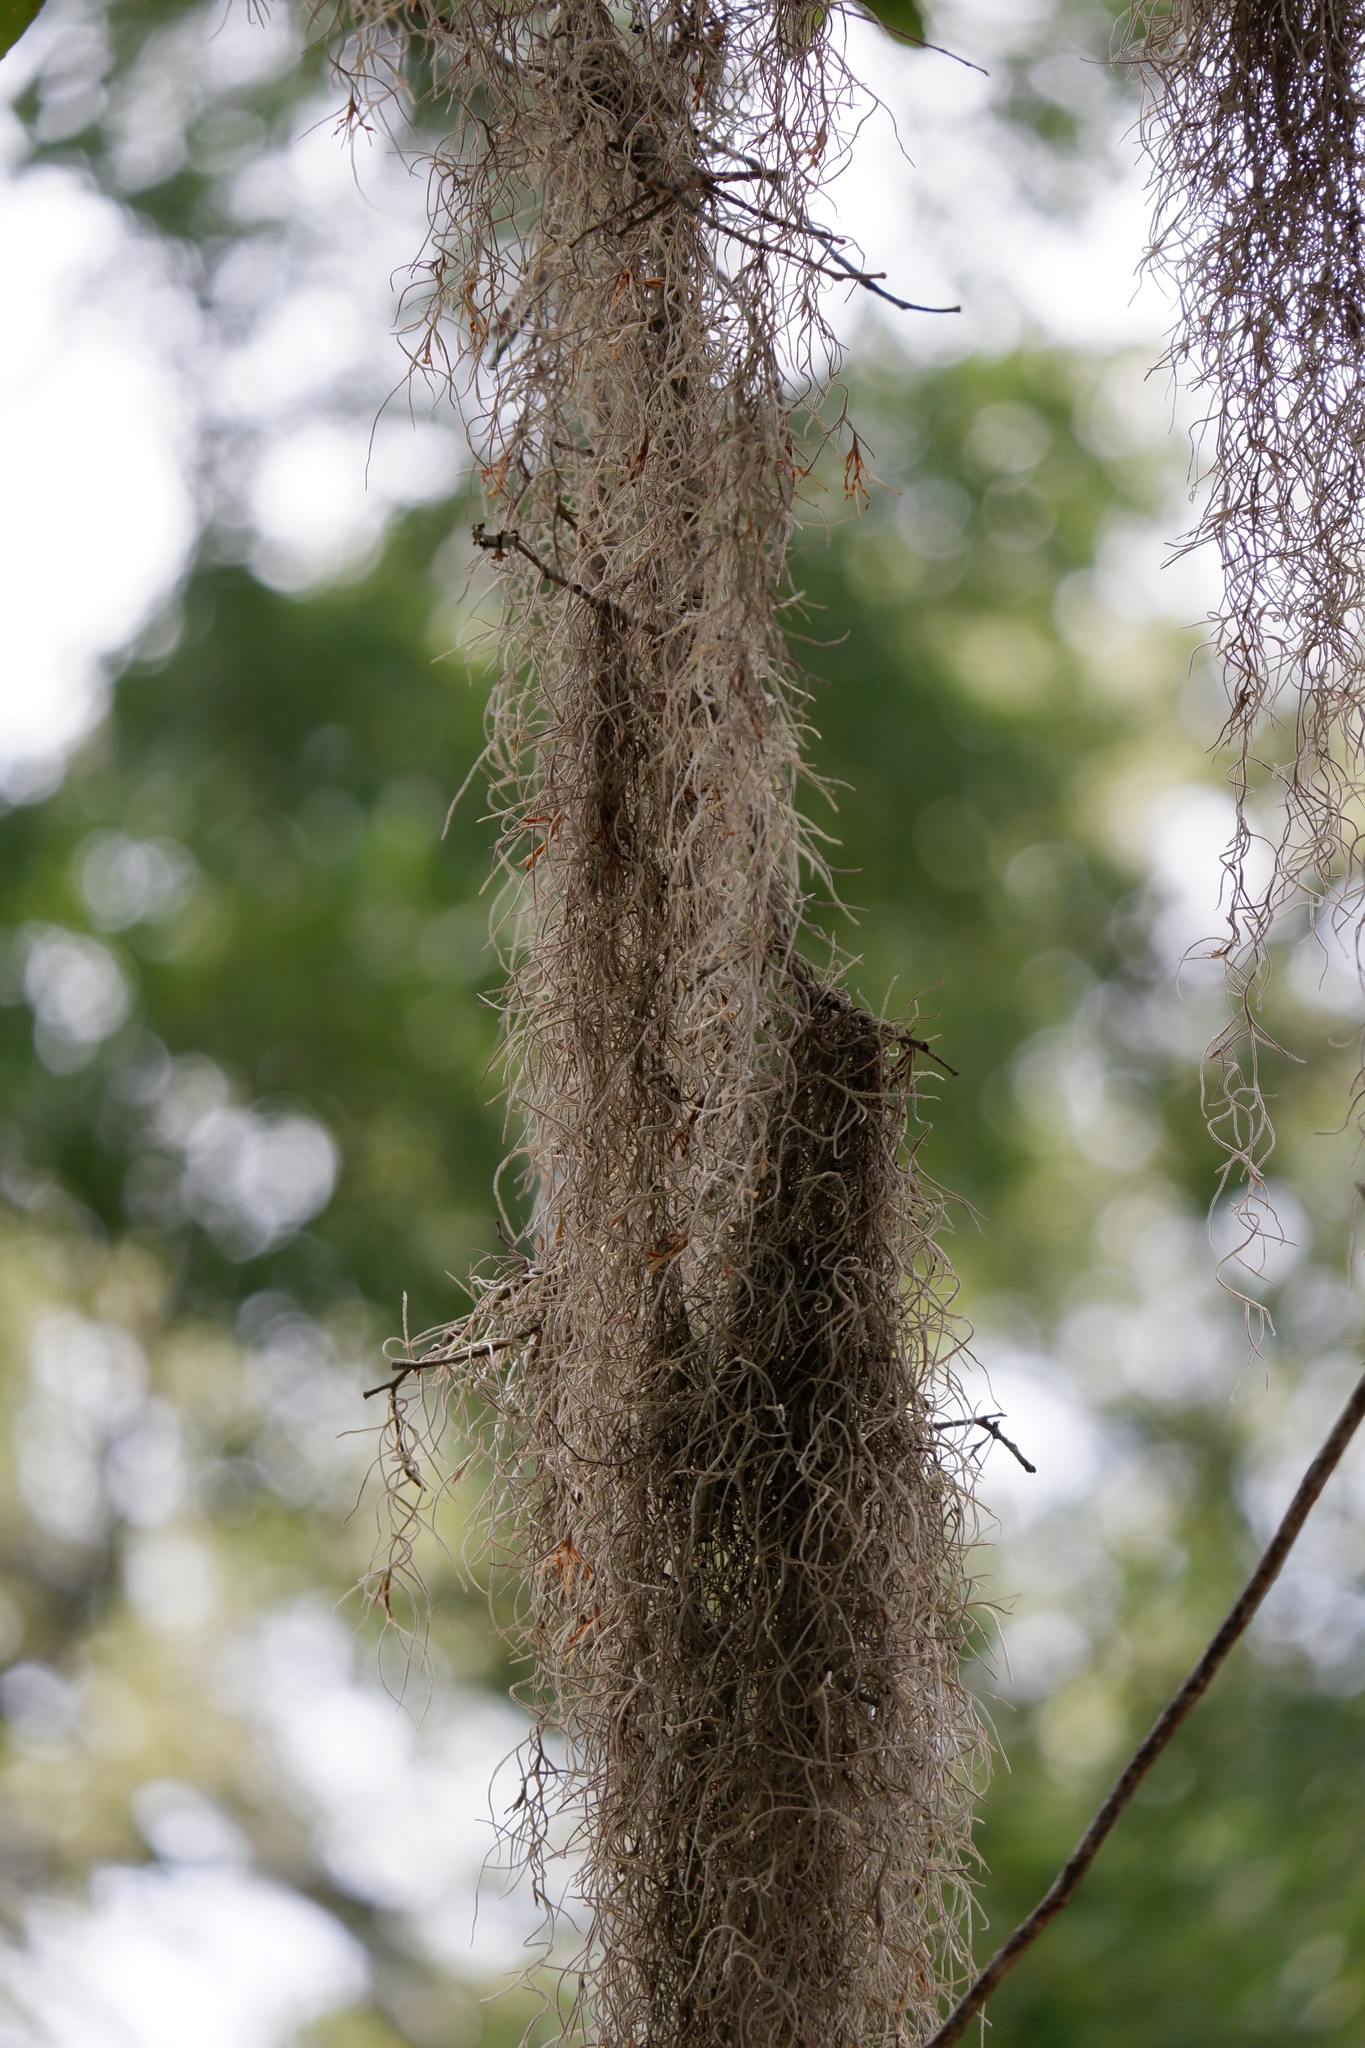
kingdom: Plantae
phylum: Tracheophyta
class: Liliopsida
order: Poales
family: Bromeliaceae
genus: Tillandsia
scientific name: Tillandsia usneoides
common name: Spanish moss
